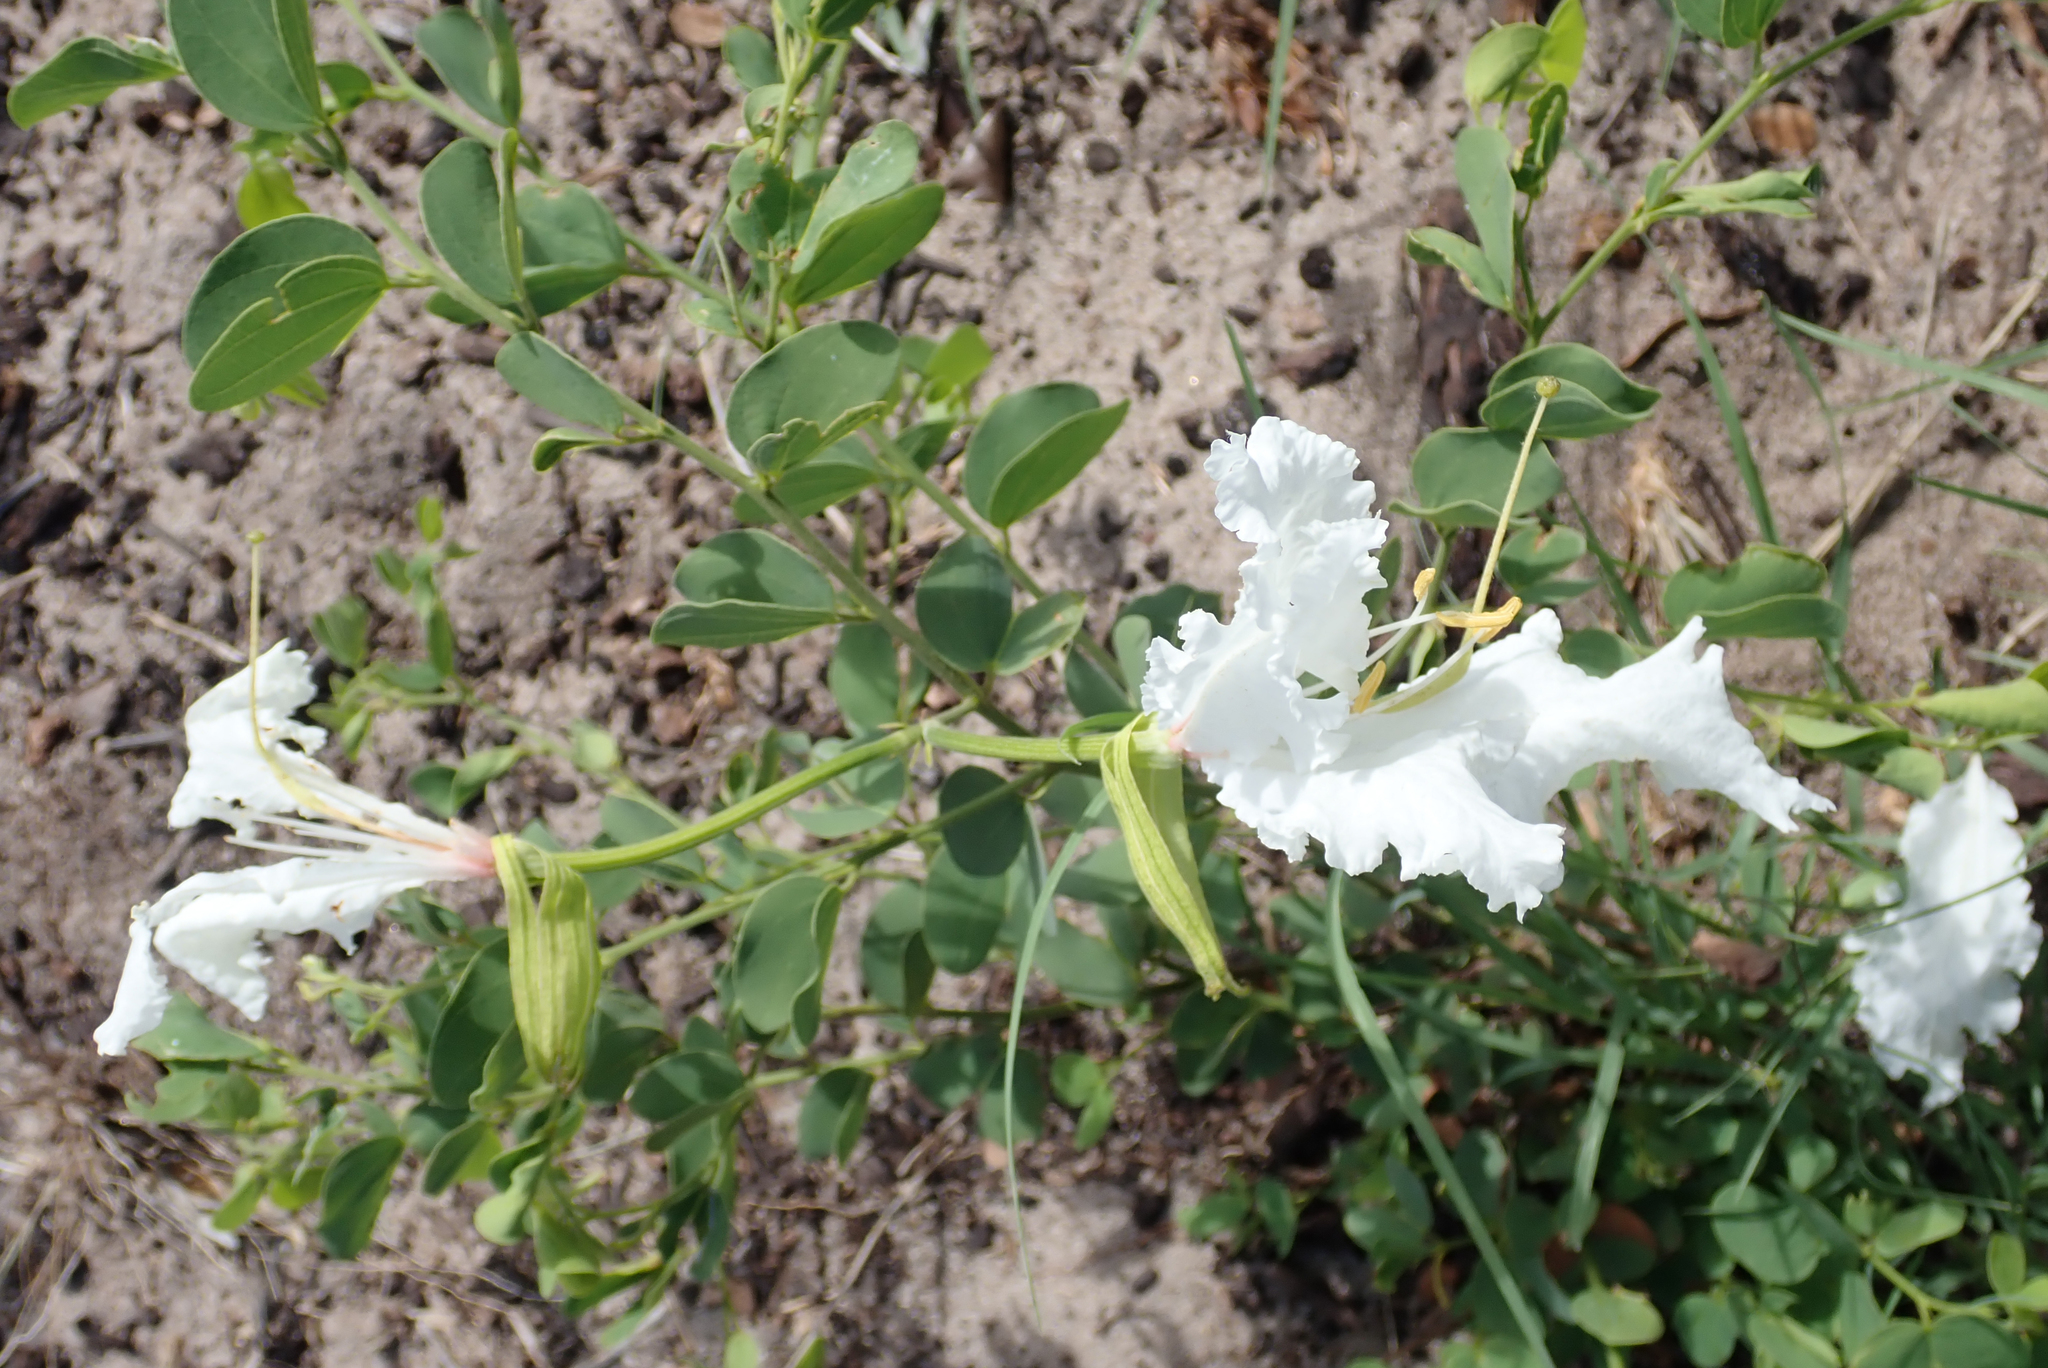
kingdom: Plantae
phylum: Tracheophyta
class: Magnoliopsida
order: Fabales
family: Fabaceae
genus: Bauhinia
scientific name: Bauhinia macrantha
